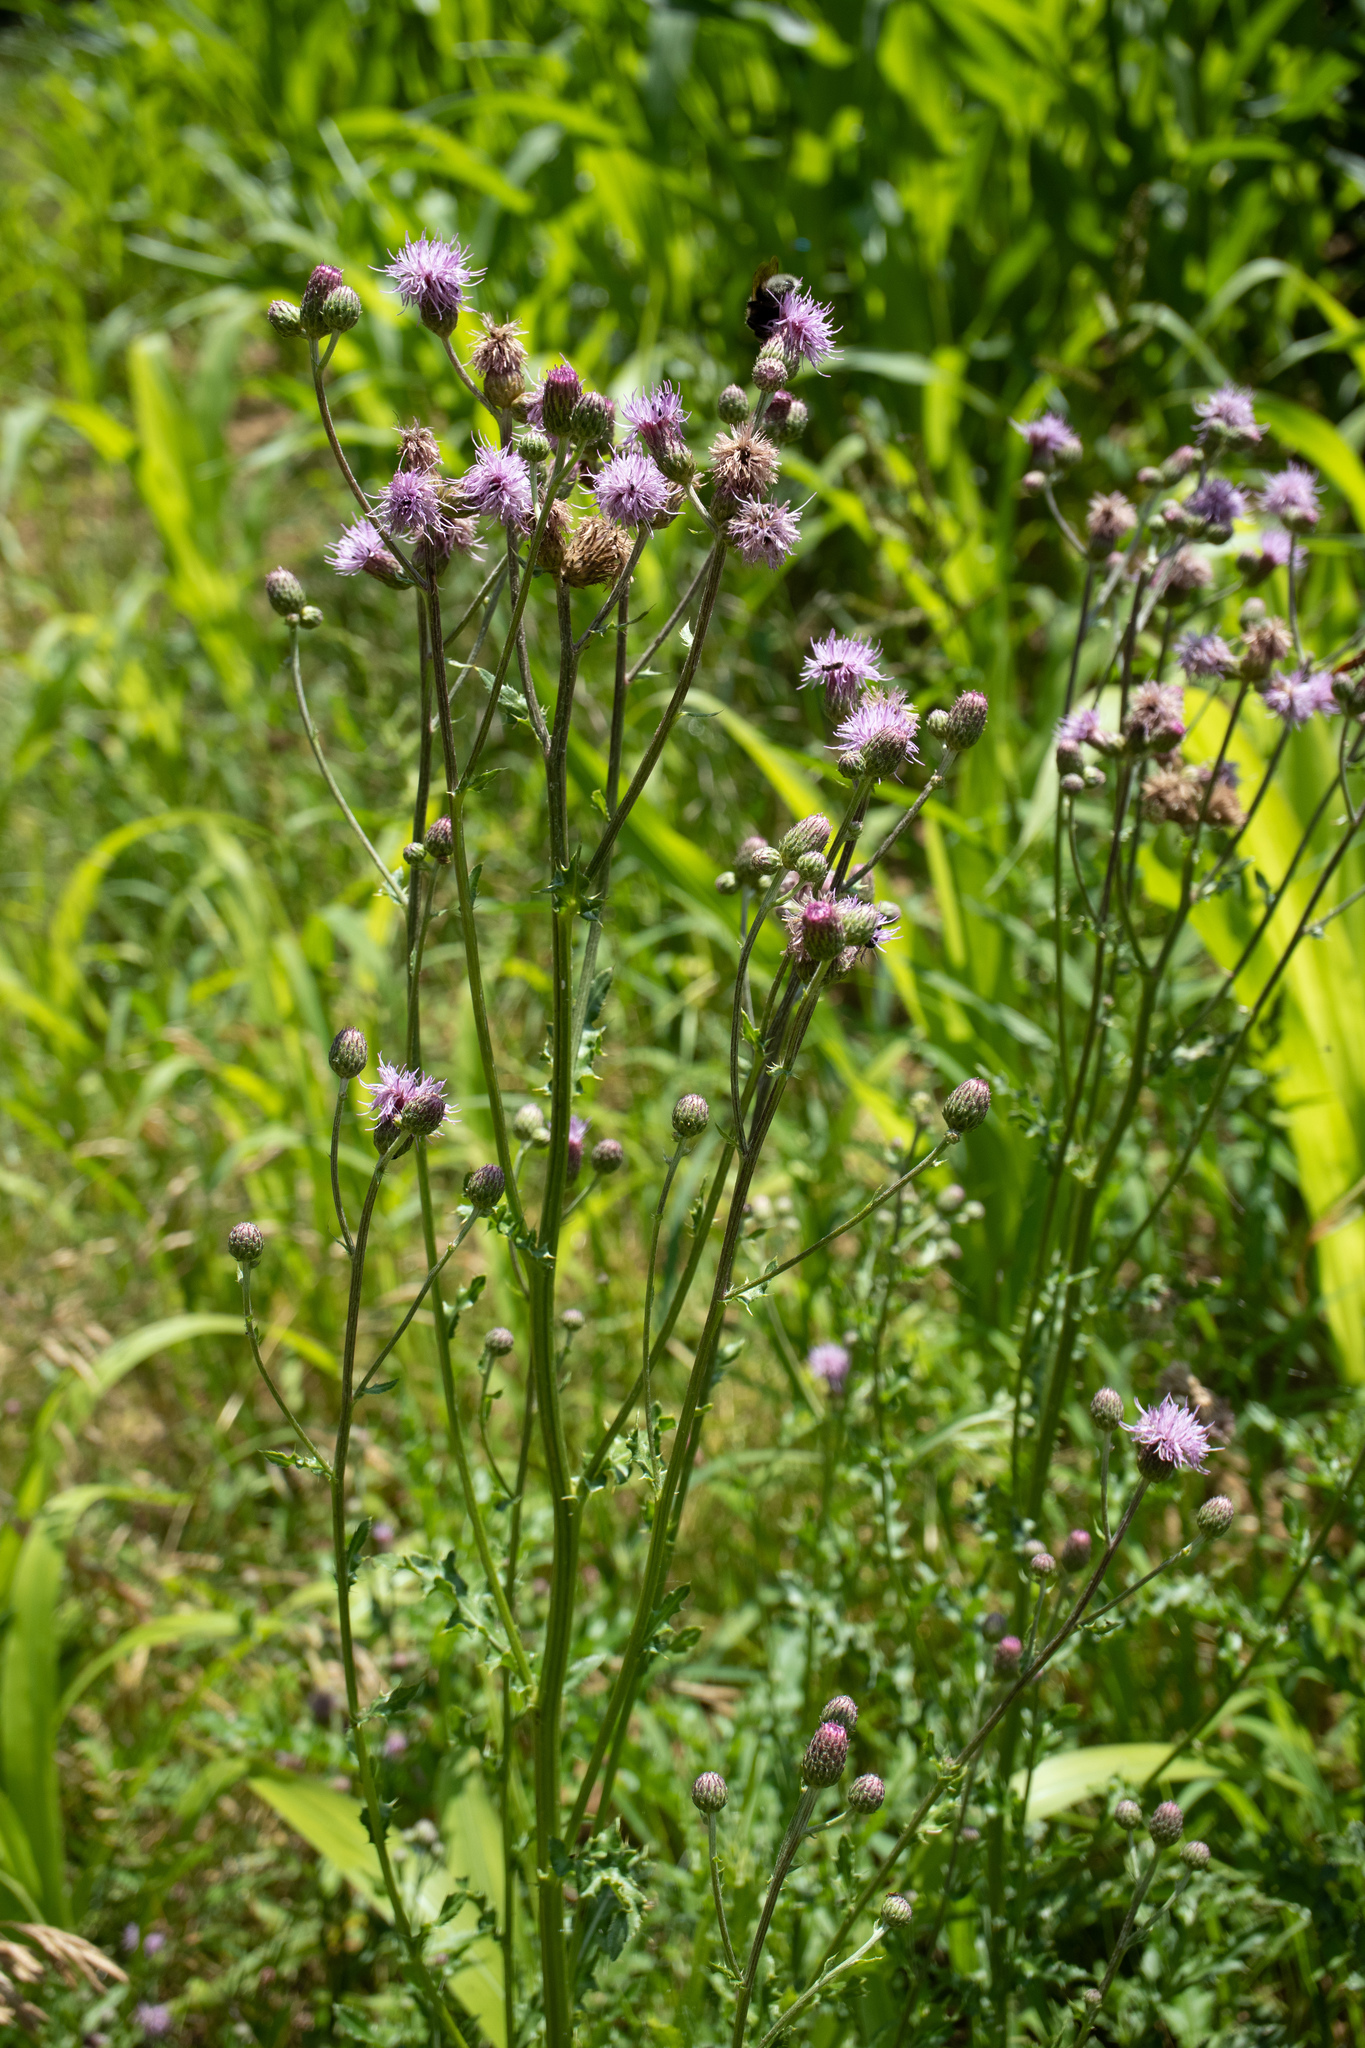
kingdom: Plantae
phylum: Tracheophyta
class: Magnoliopsida
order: Asterales
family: Asteraceae
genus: Cirsium
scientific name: Cirsium arvense
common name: Creeping thistle
